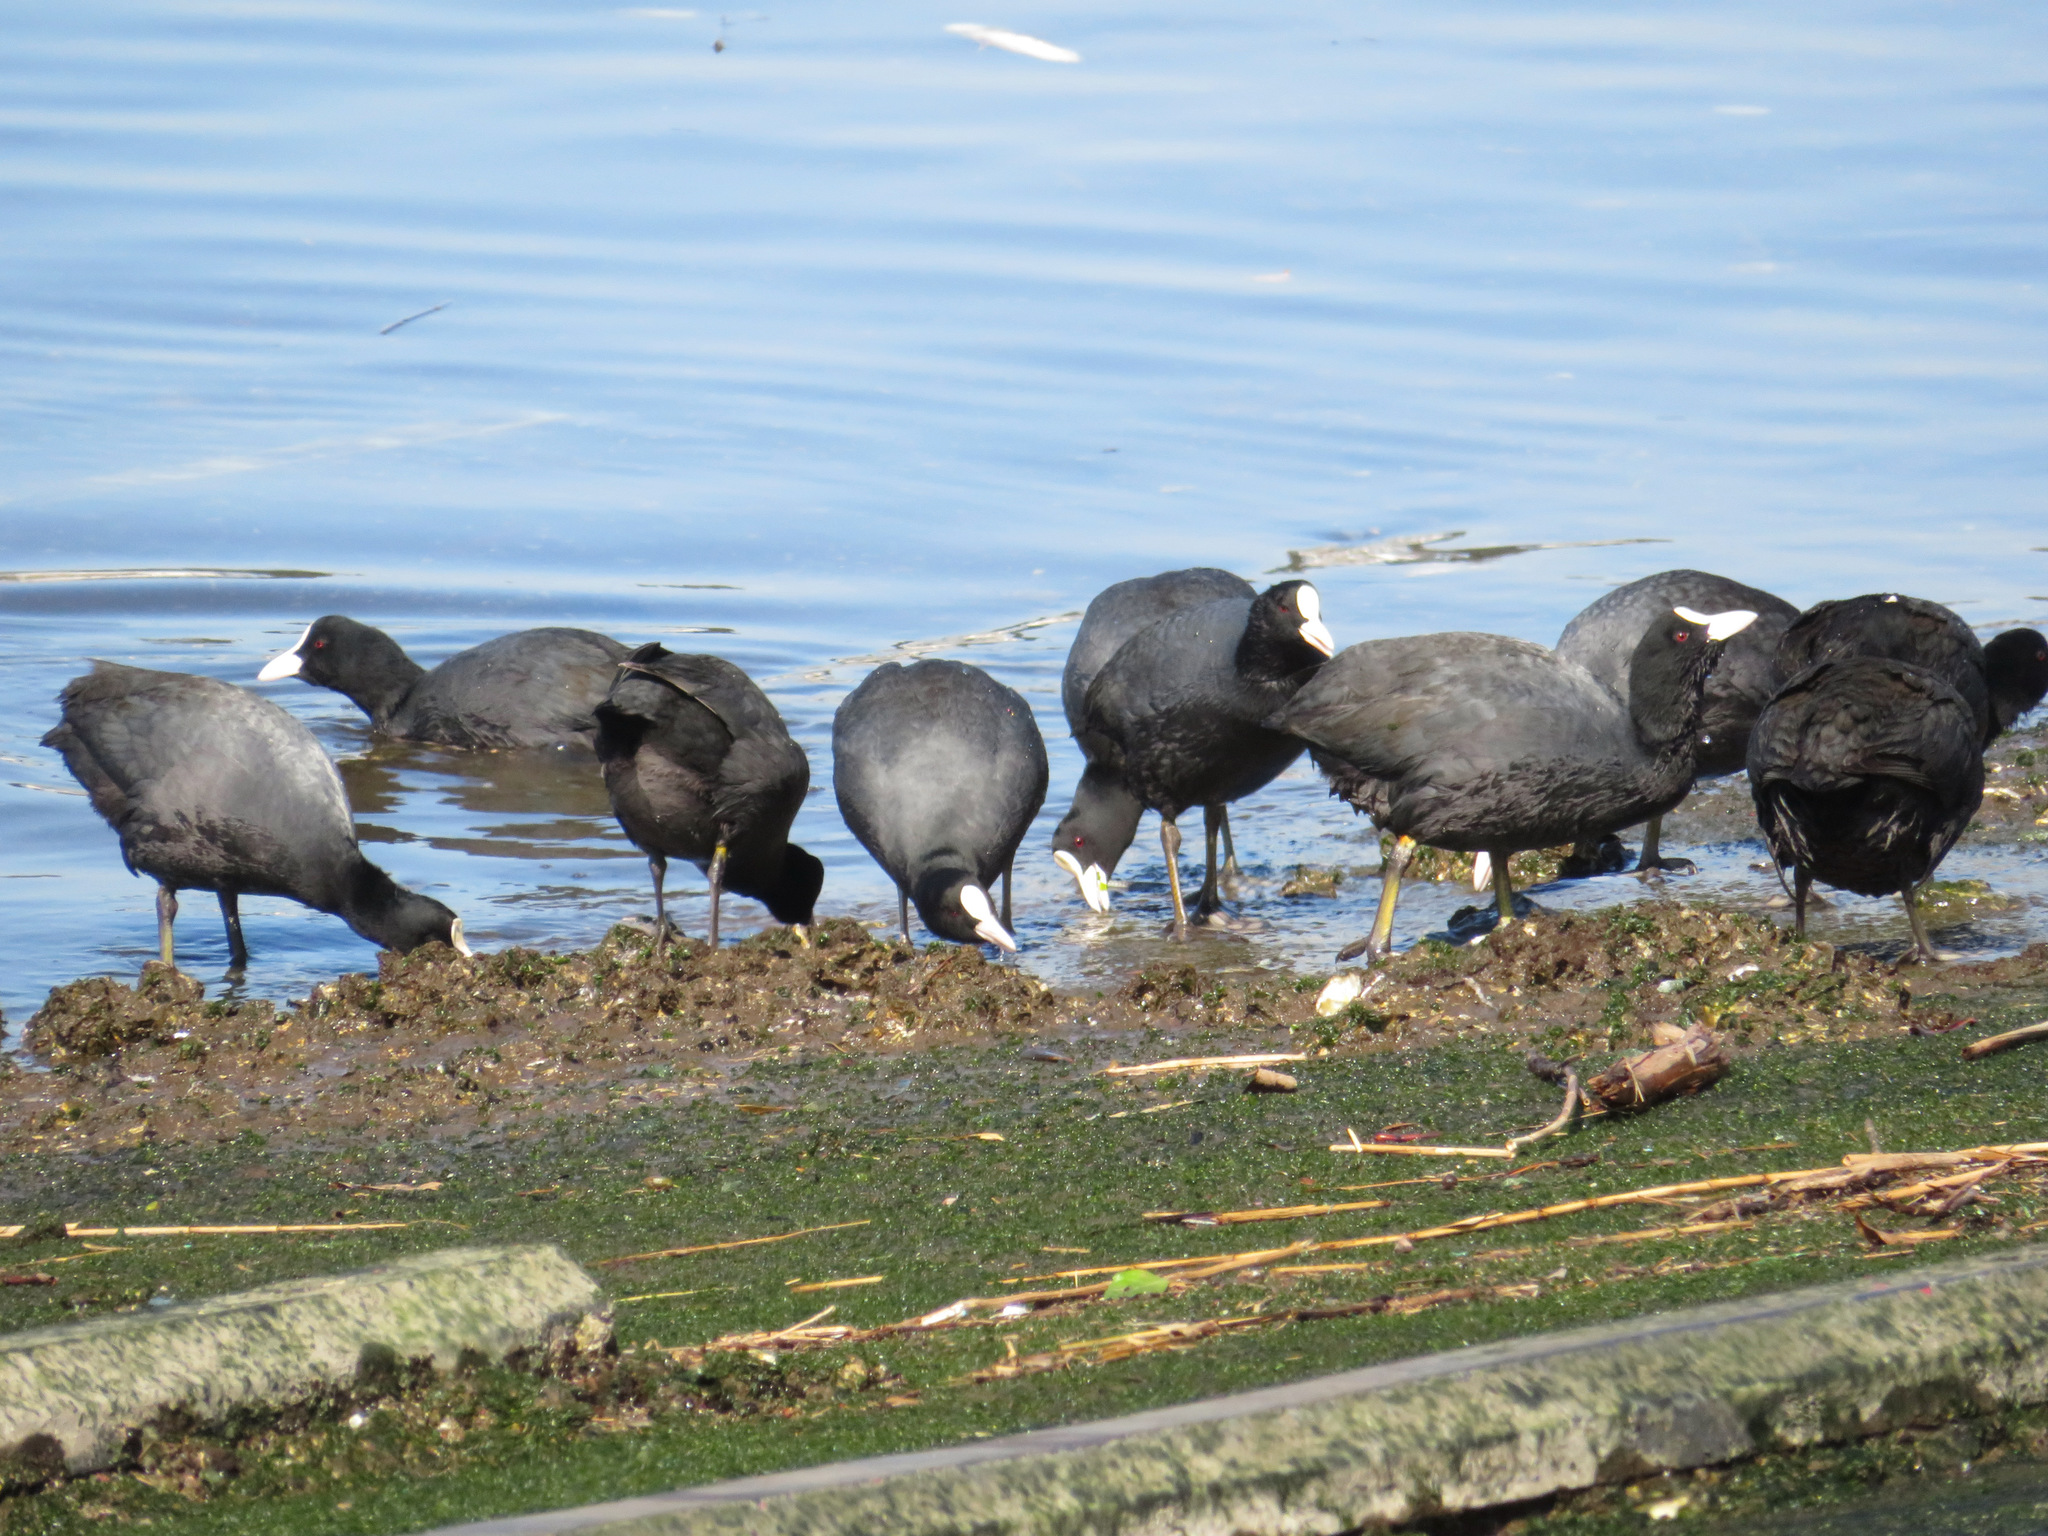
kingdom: Animalia
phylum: Chordata
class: Aves
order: Gruiformes
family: Rallidae
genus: Fulica
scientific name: Fulica atra
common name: Eurasian coot
